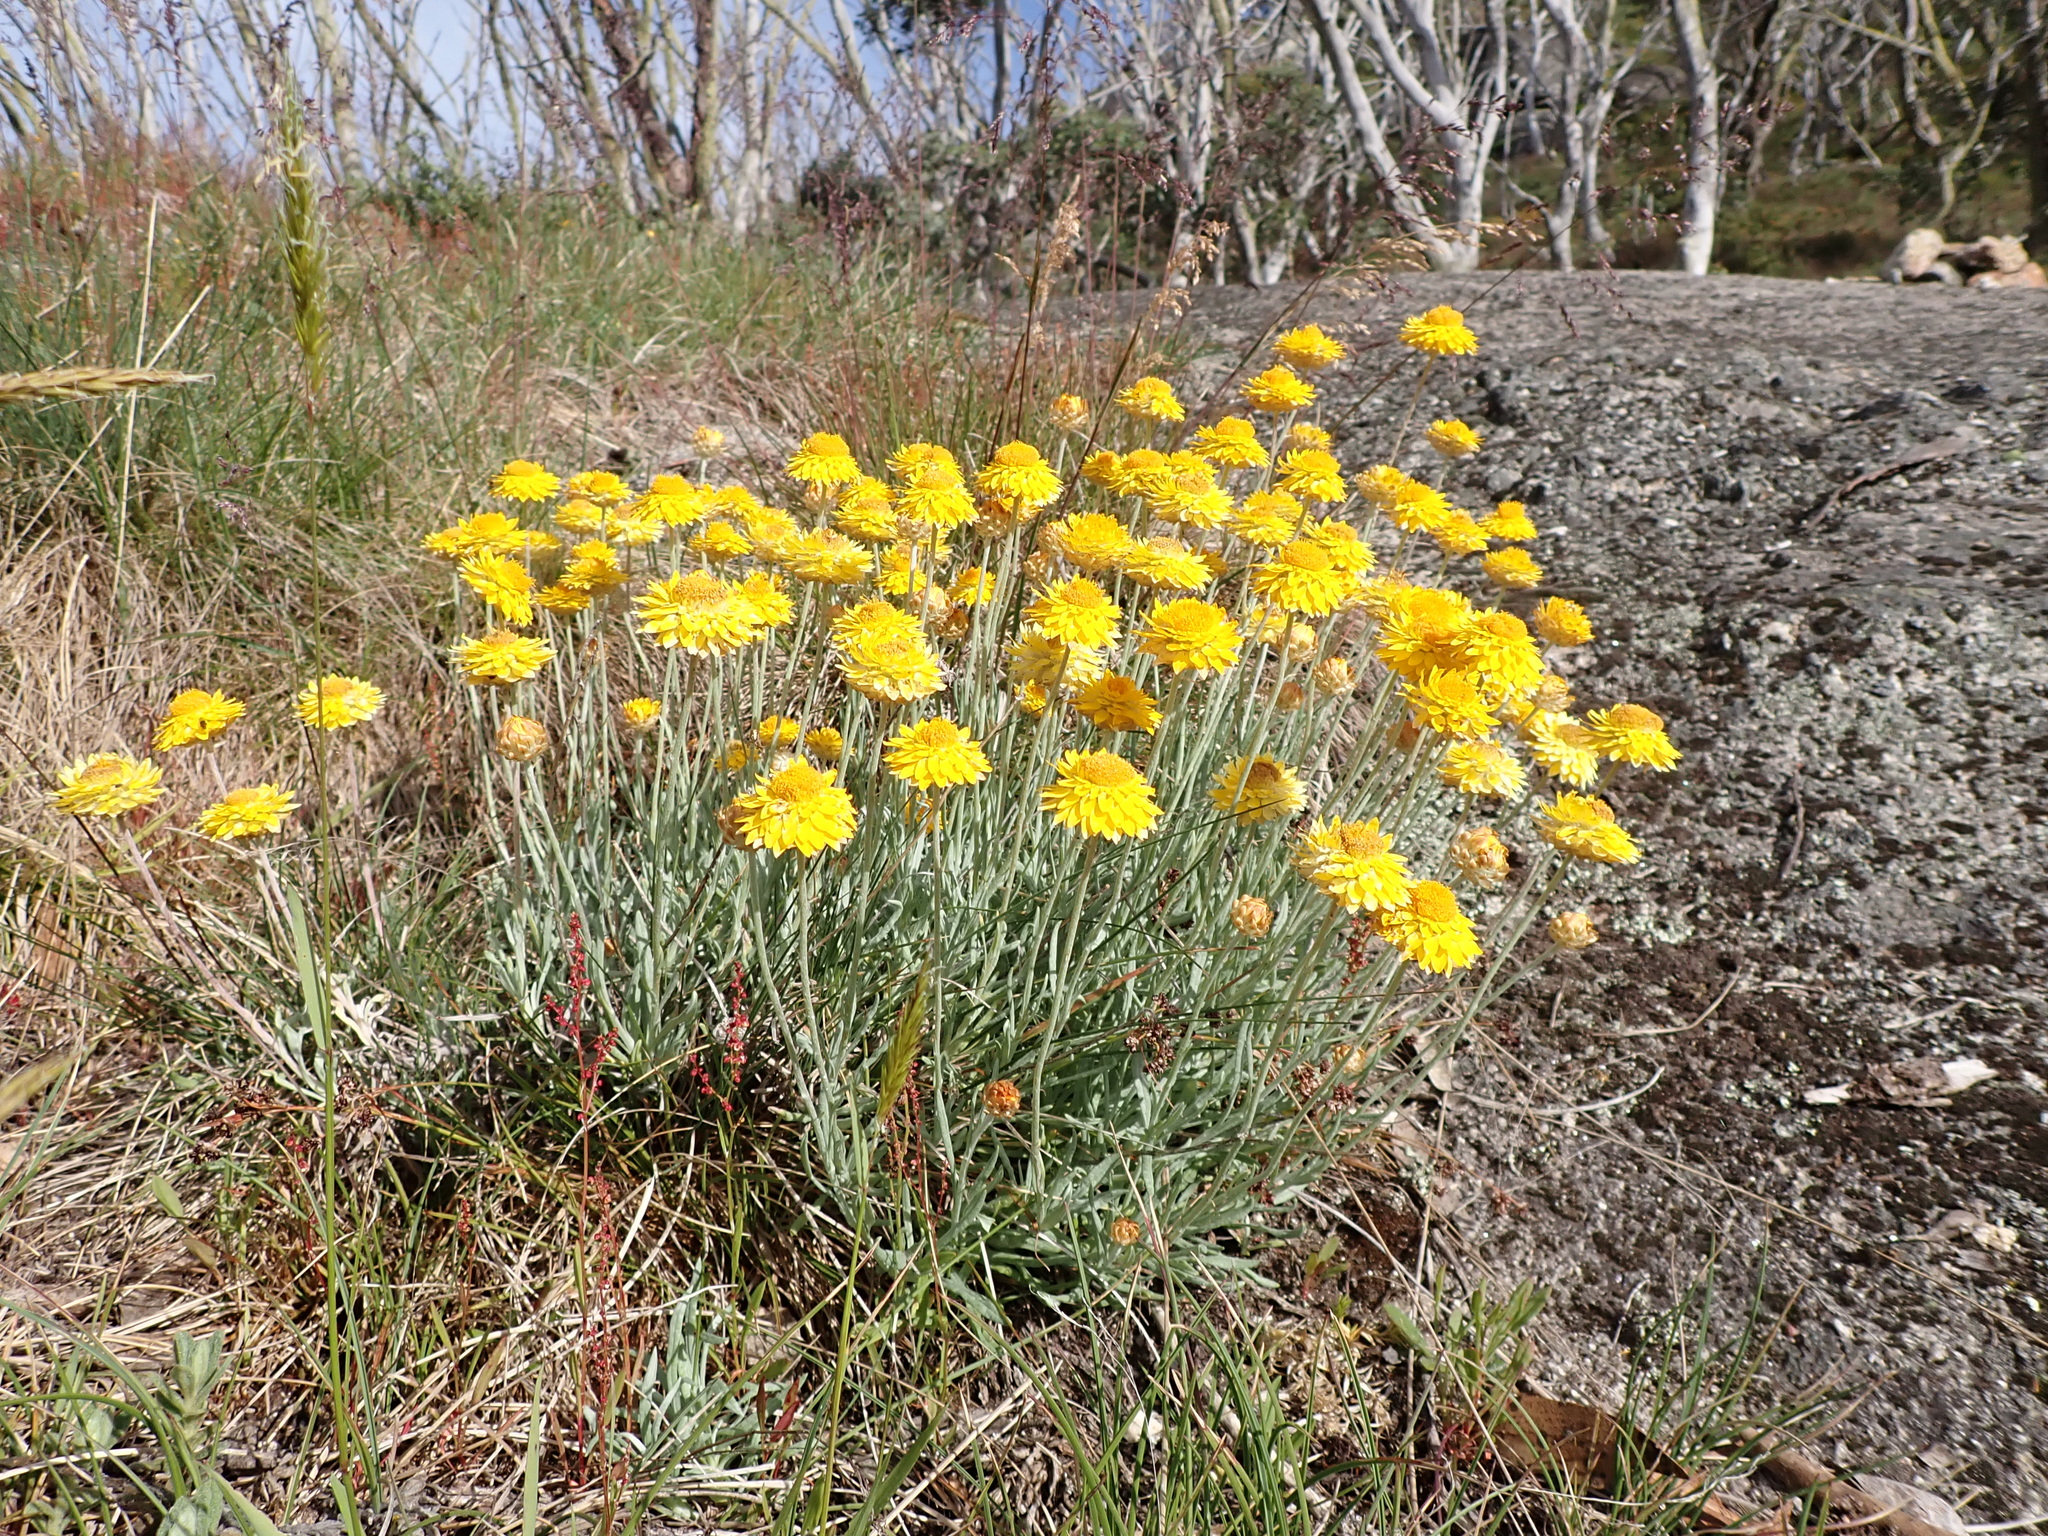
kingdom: Plantae
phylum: Tracheophyta
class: Magnoliopsida
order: Asterales
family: Asteraceae
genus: Leucochrysum
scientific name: Leucochrysum albicans
